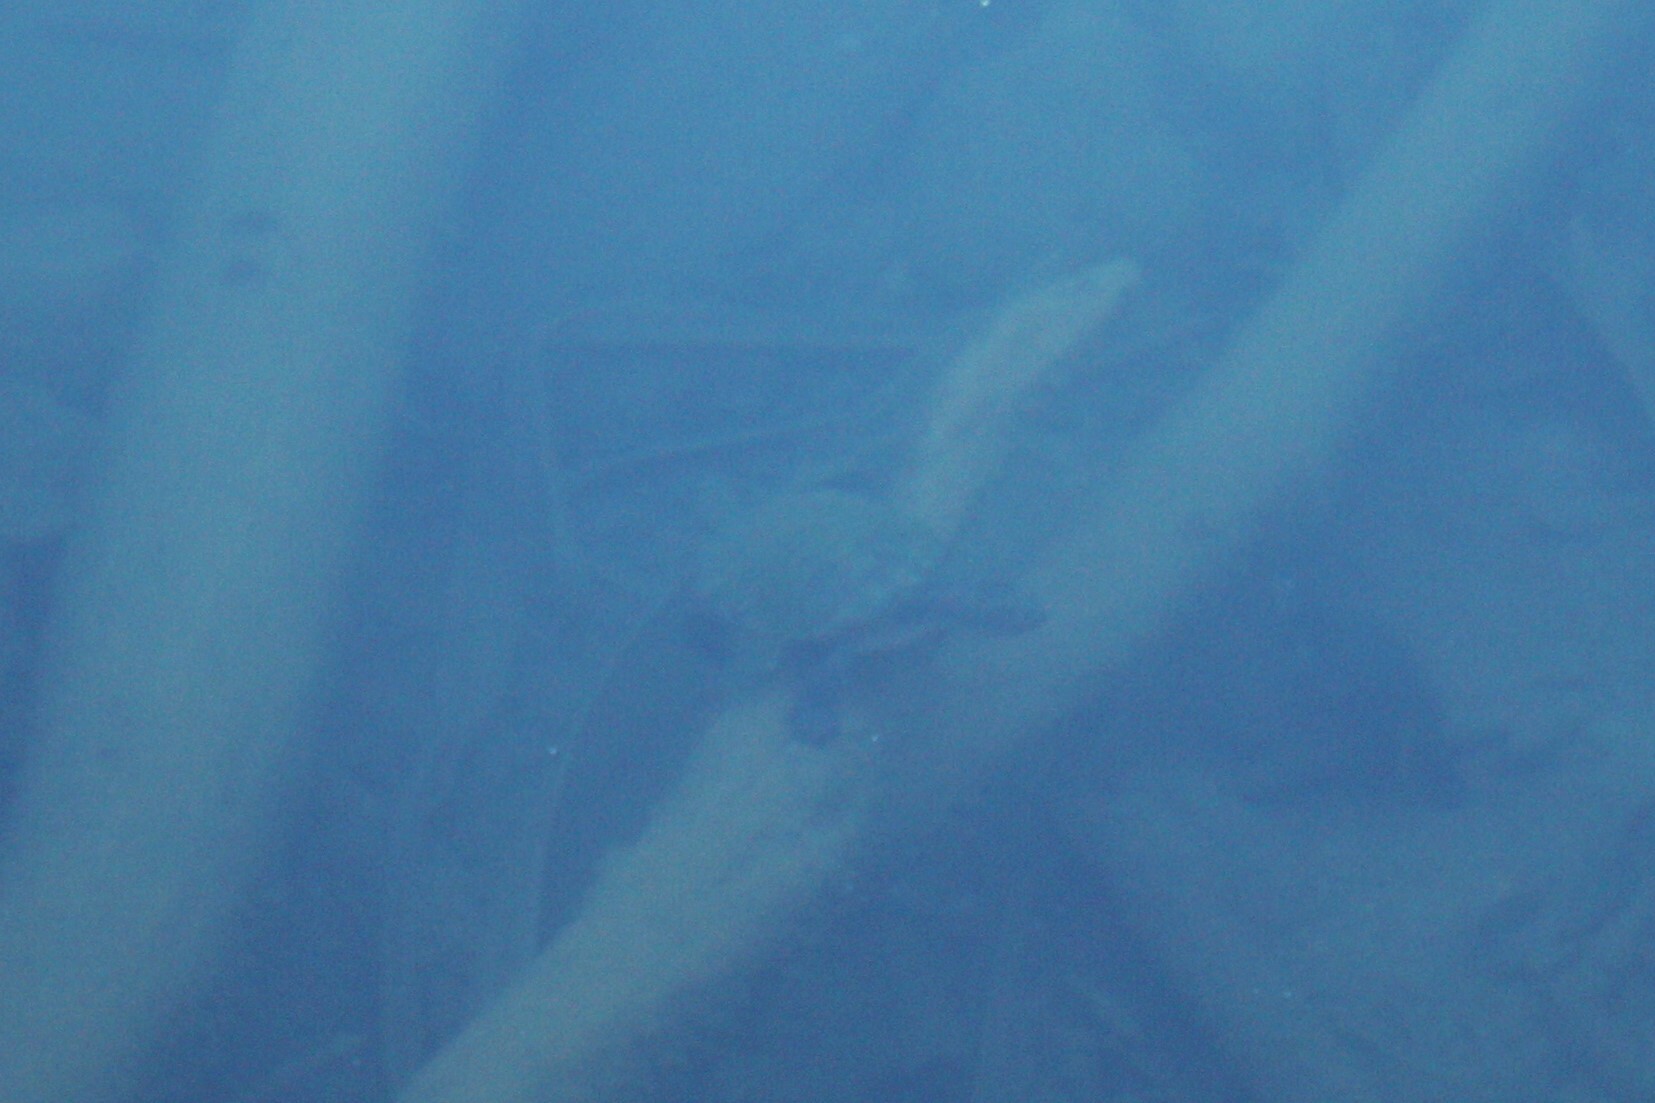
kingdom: Animalia
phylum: Chordata
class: Testudines
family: Chelidae
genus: Myuchelys
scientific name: Myuchelys latisternum
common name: Serrated snapping turtle
